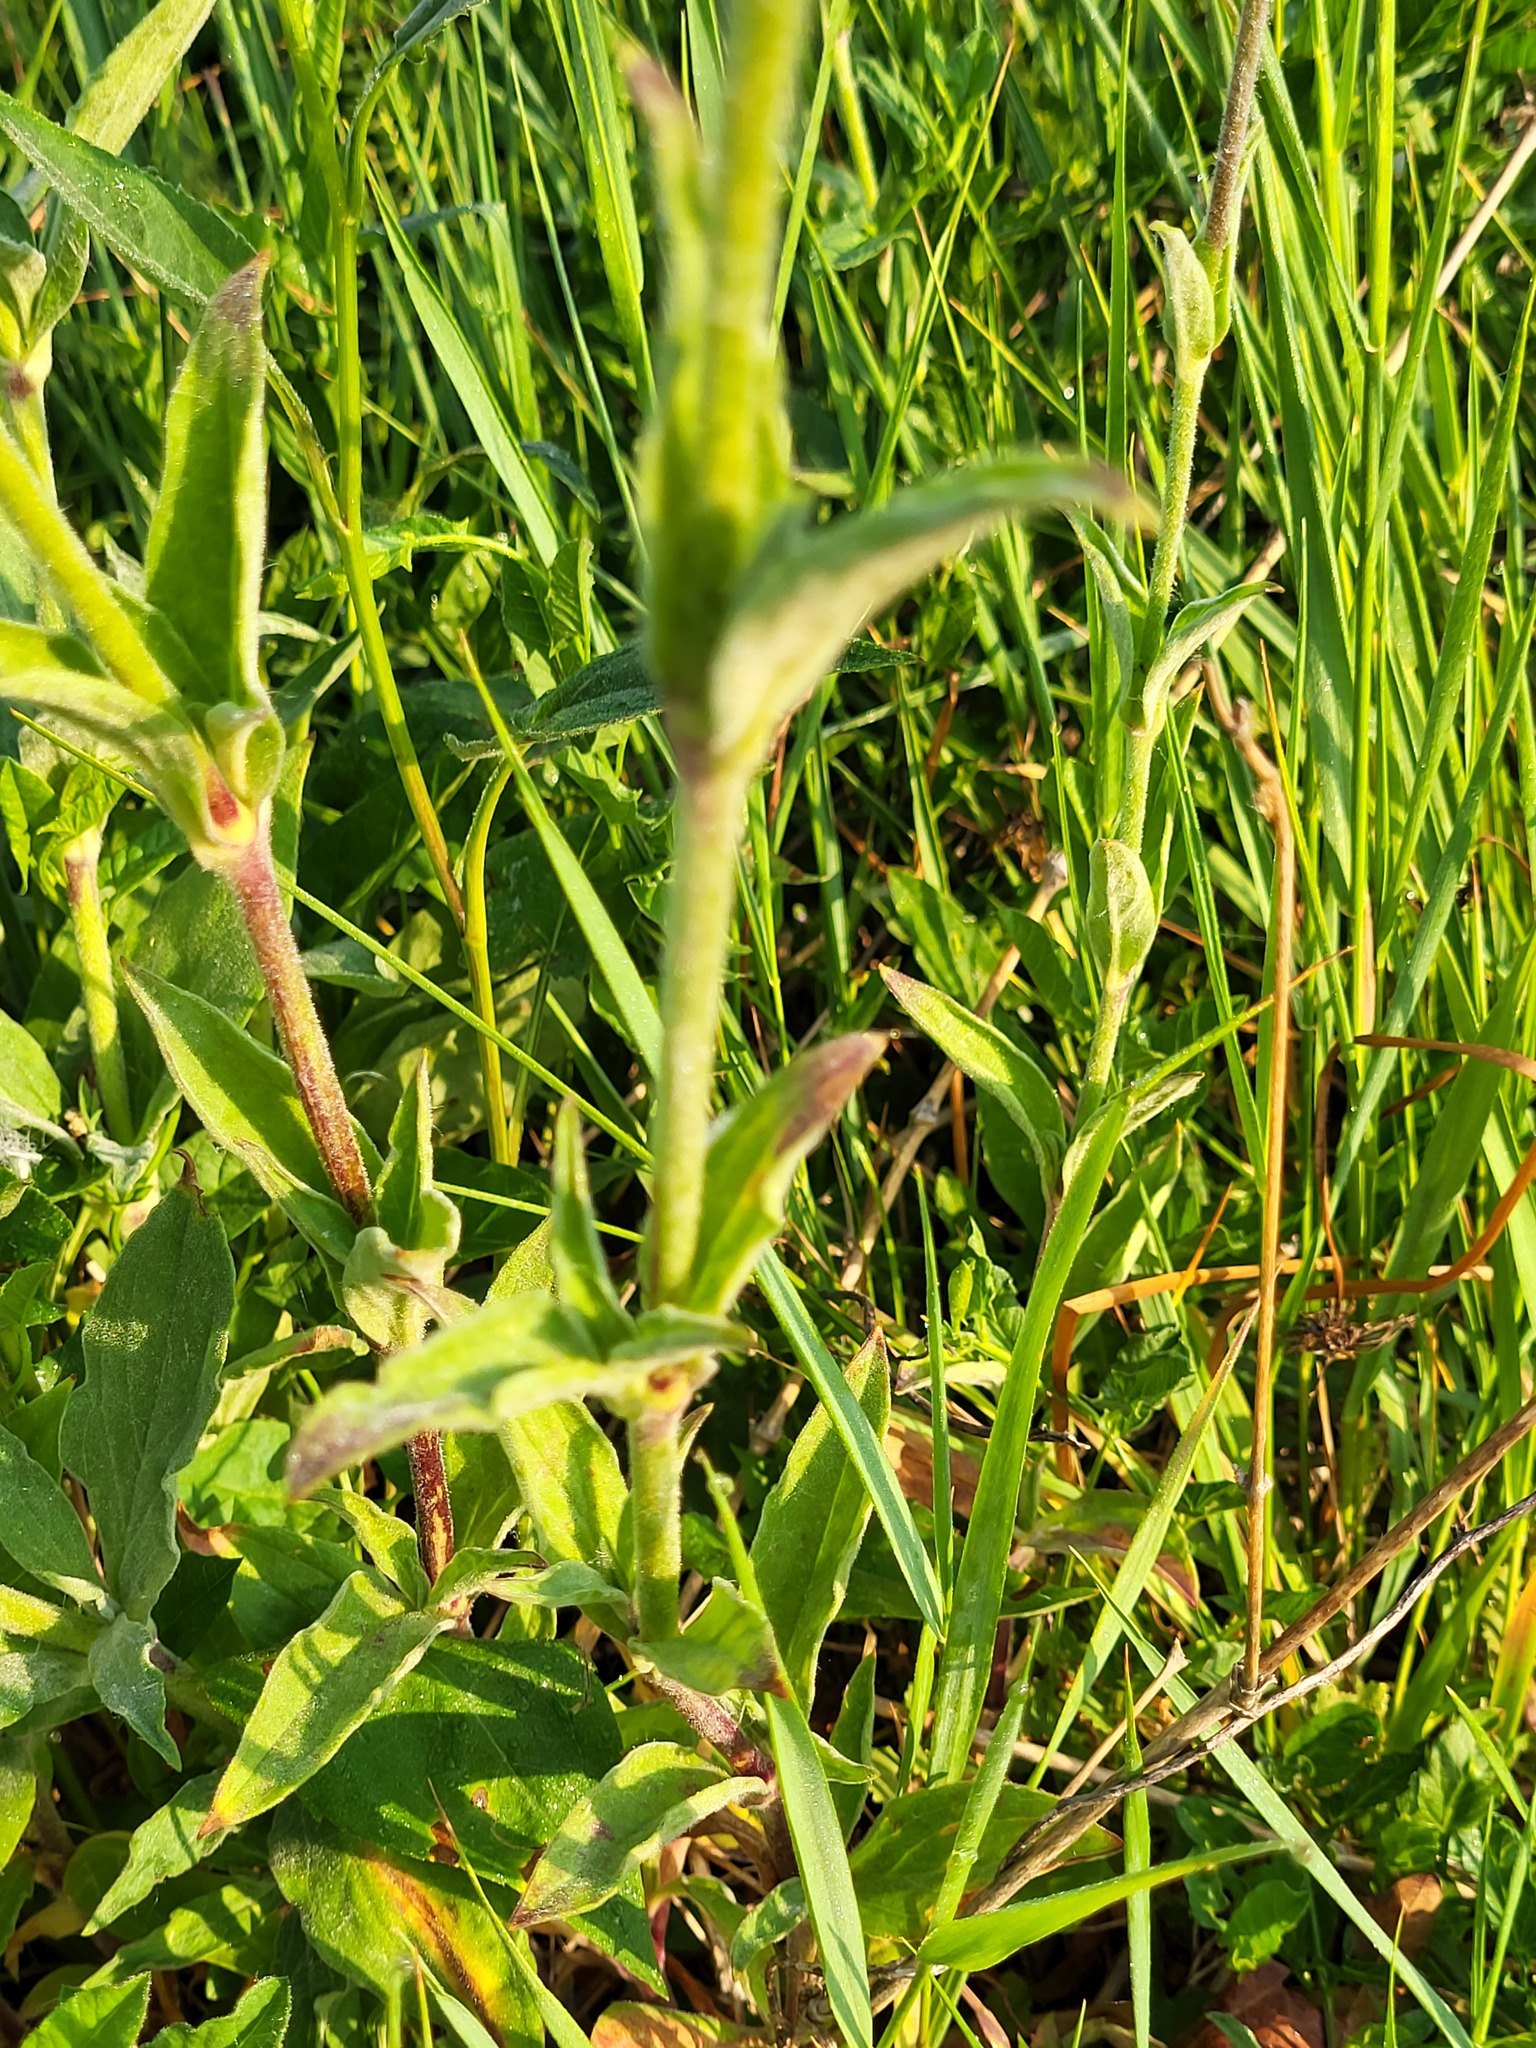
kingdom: Plantae
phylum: Tracheophyta
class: Magnoliopsida
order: Caryophyllales
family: Caryophyllaceae
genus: Silene
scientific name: Silene latifolia
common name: White campion
